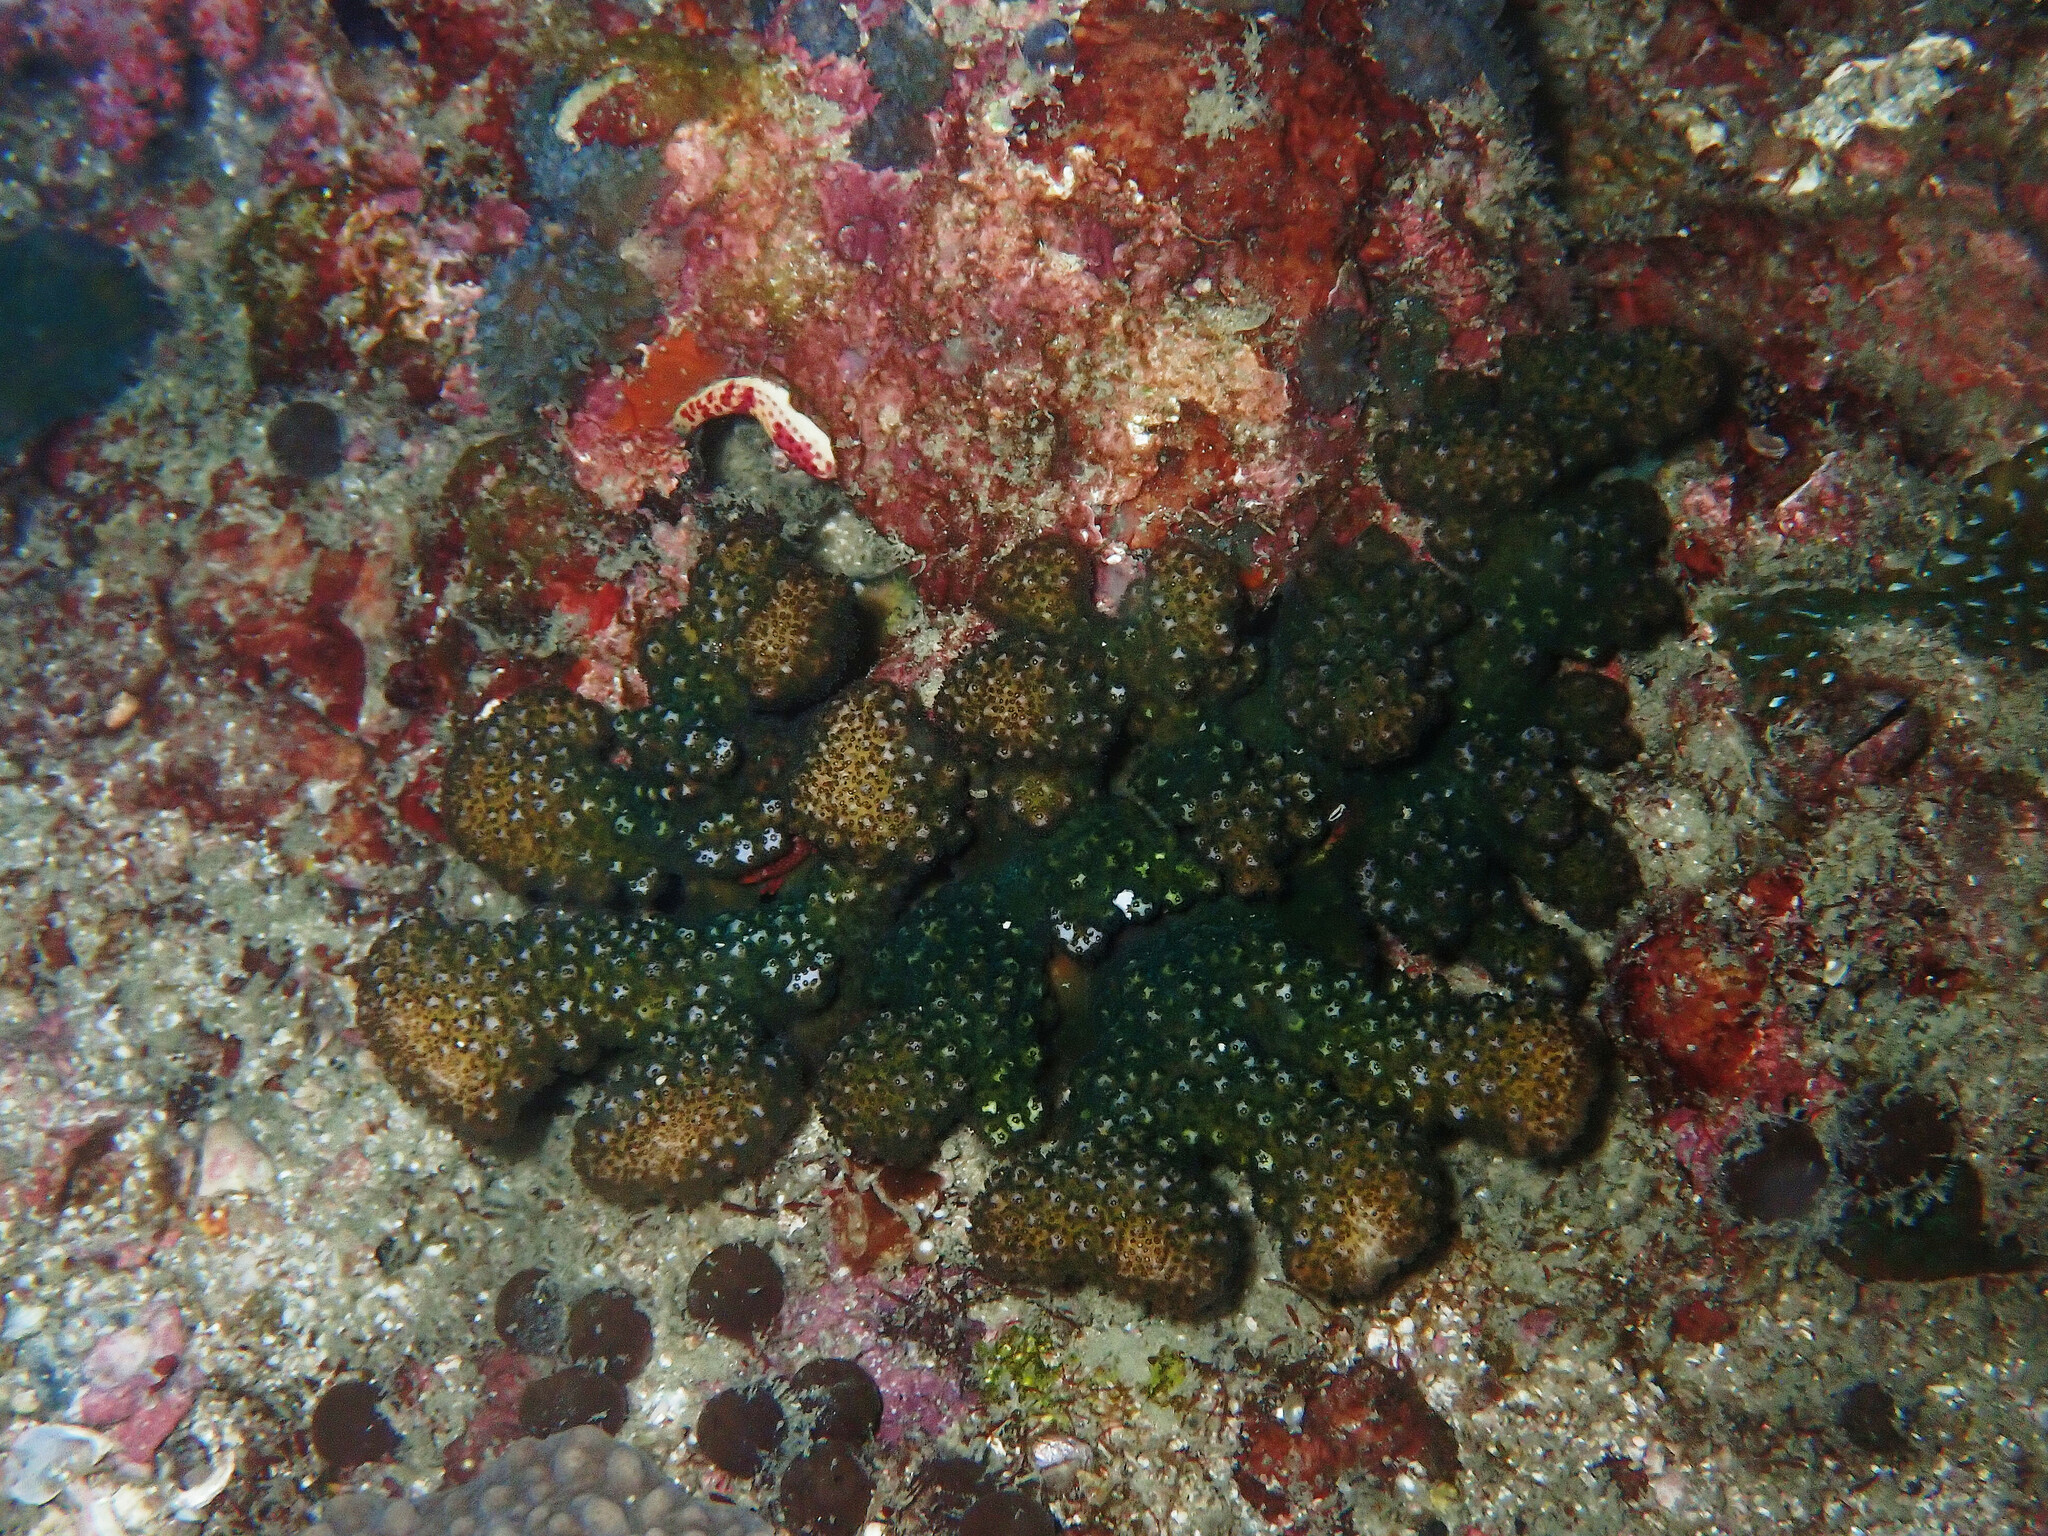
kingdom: Animalia
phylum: Cnidaria
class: Anthozoa
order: Scleractinia
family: Pocilloporidae
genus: Pocillopora
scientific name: Pocillopora verrucosa
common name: Cauliflower coral
